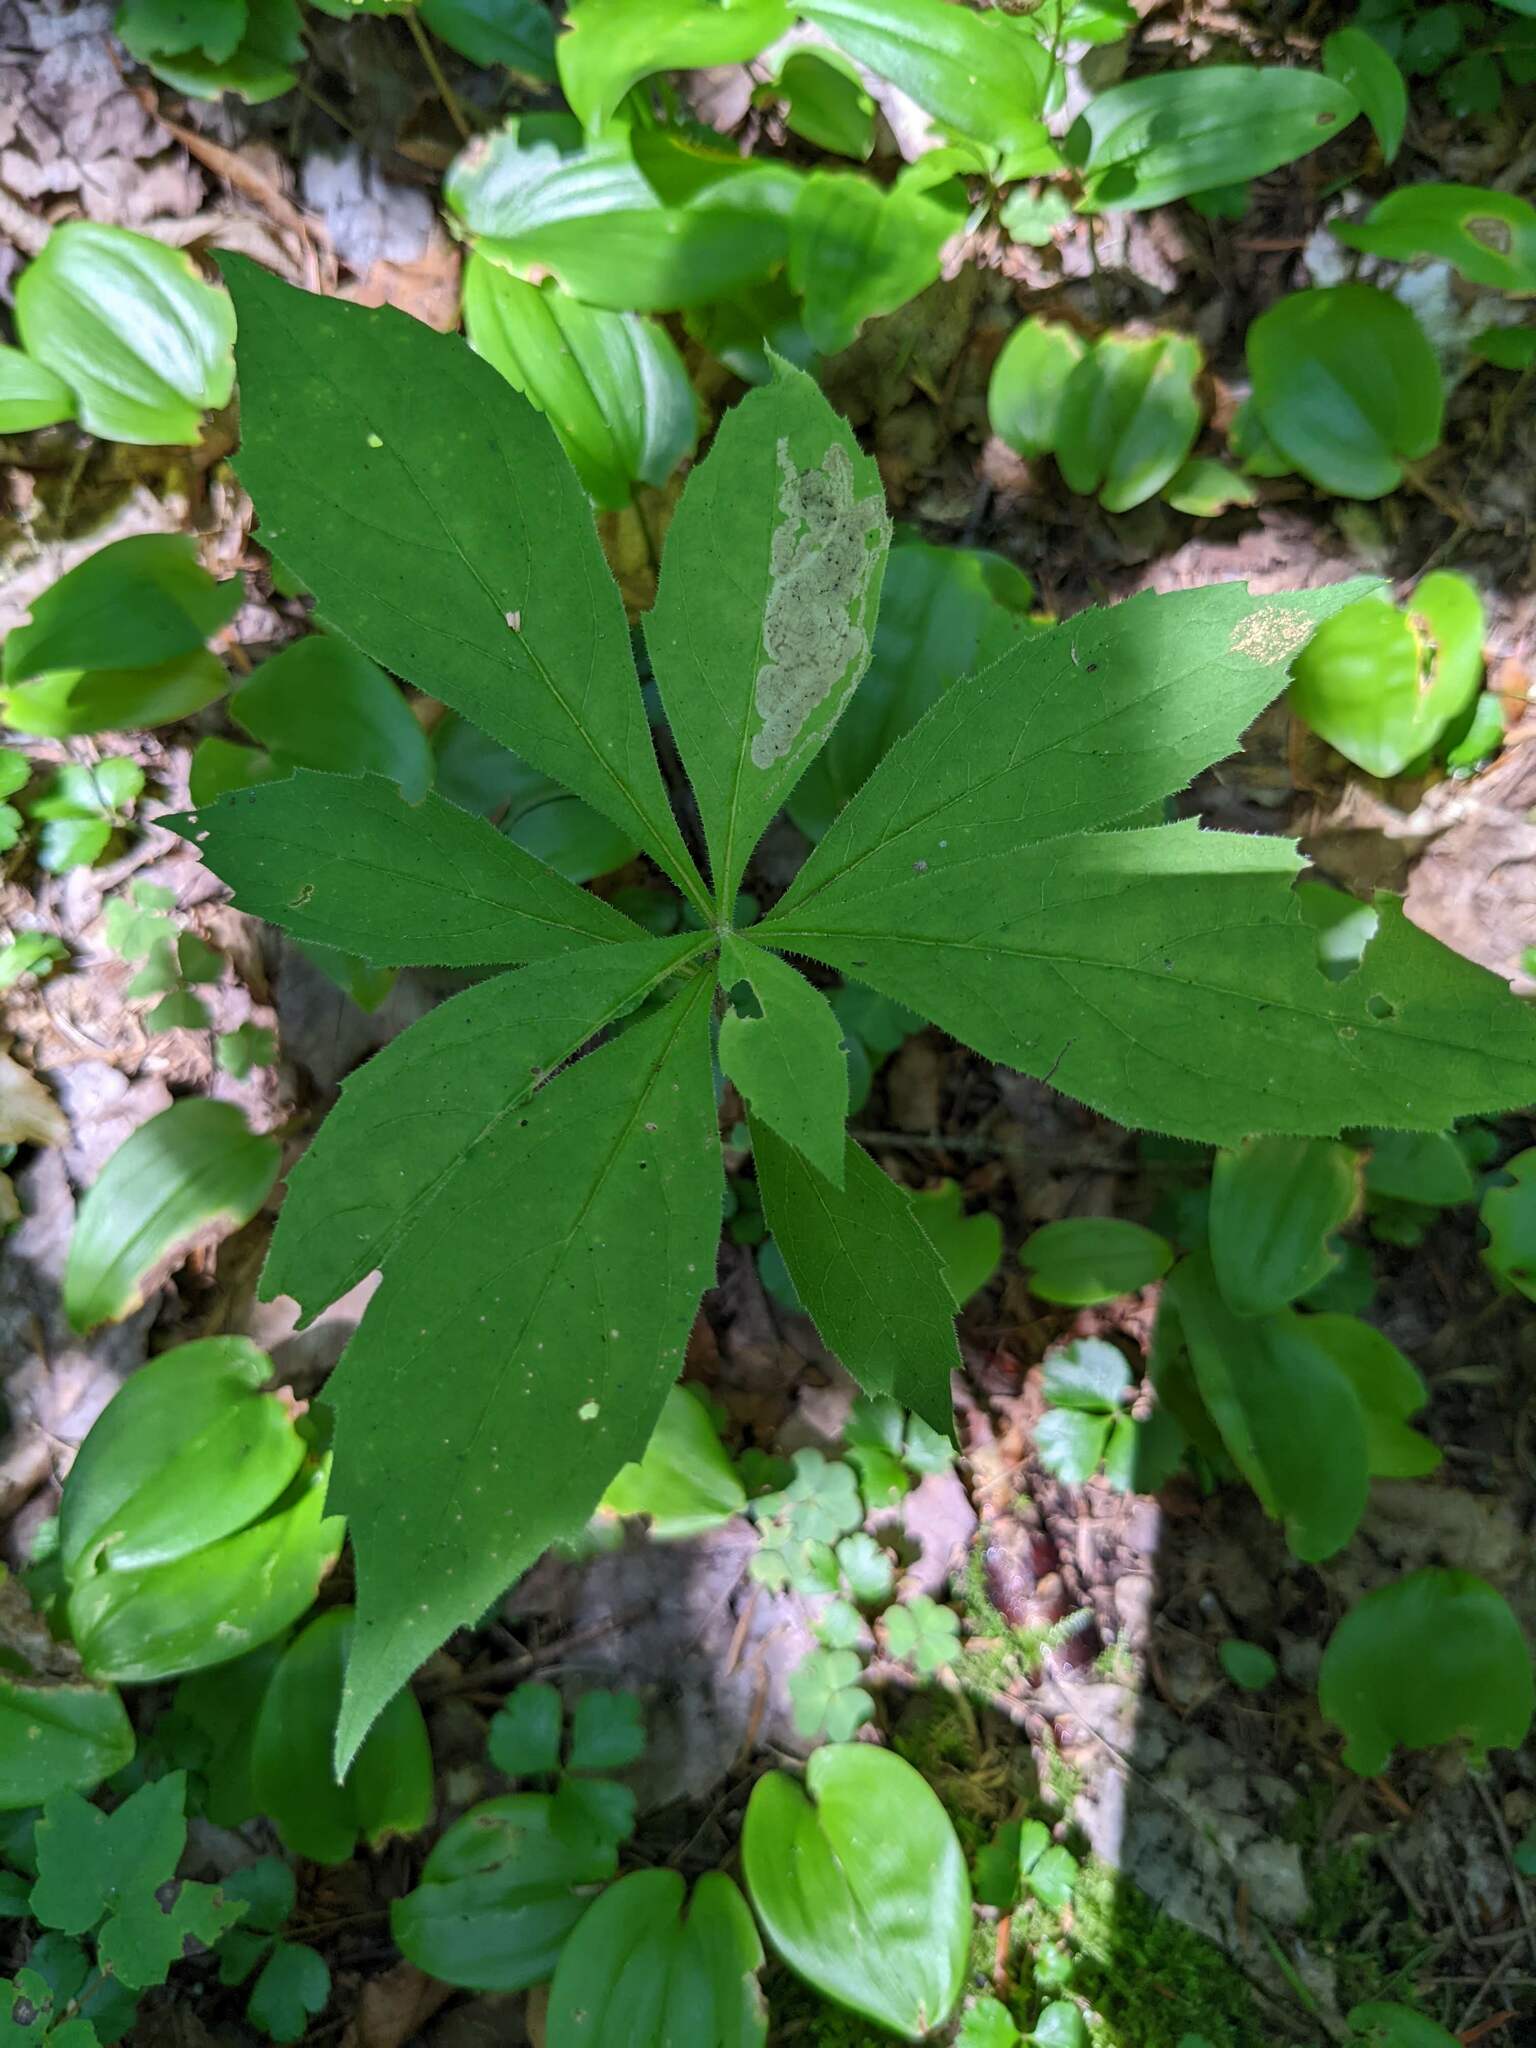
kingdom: Plantae
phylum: Tracheophyta
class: Magnoliopsida
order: Asterales
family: Asteraceae
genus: Oclemena
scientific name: Oclemena acuminata
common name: Mountain aster
